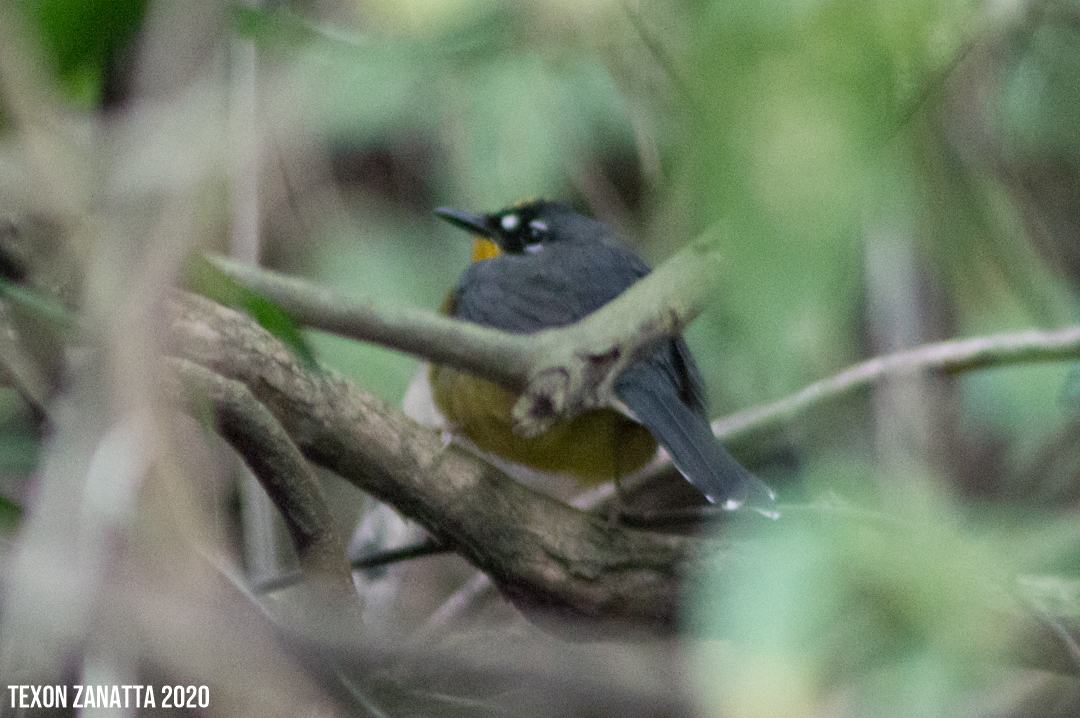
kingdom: Animalia
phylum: Chordata
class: Aves
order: Passeriformes
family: Parulidae
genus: Basileuterus
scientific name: Basileuterus lachrymosus
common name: Fan-tailed warbler
